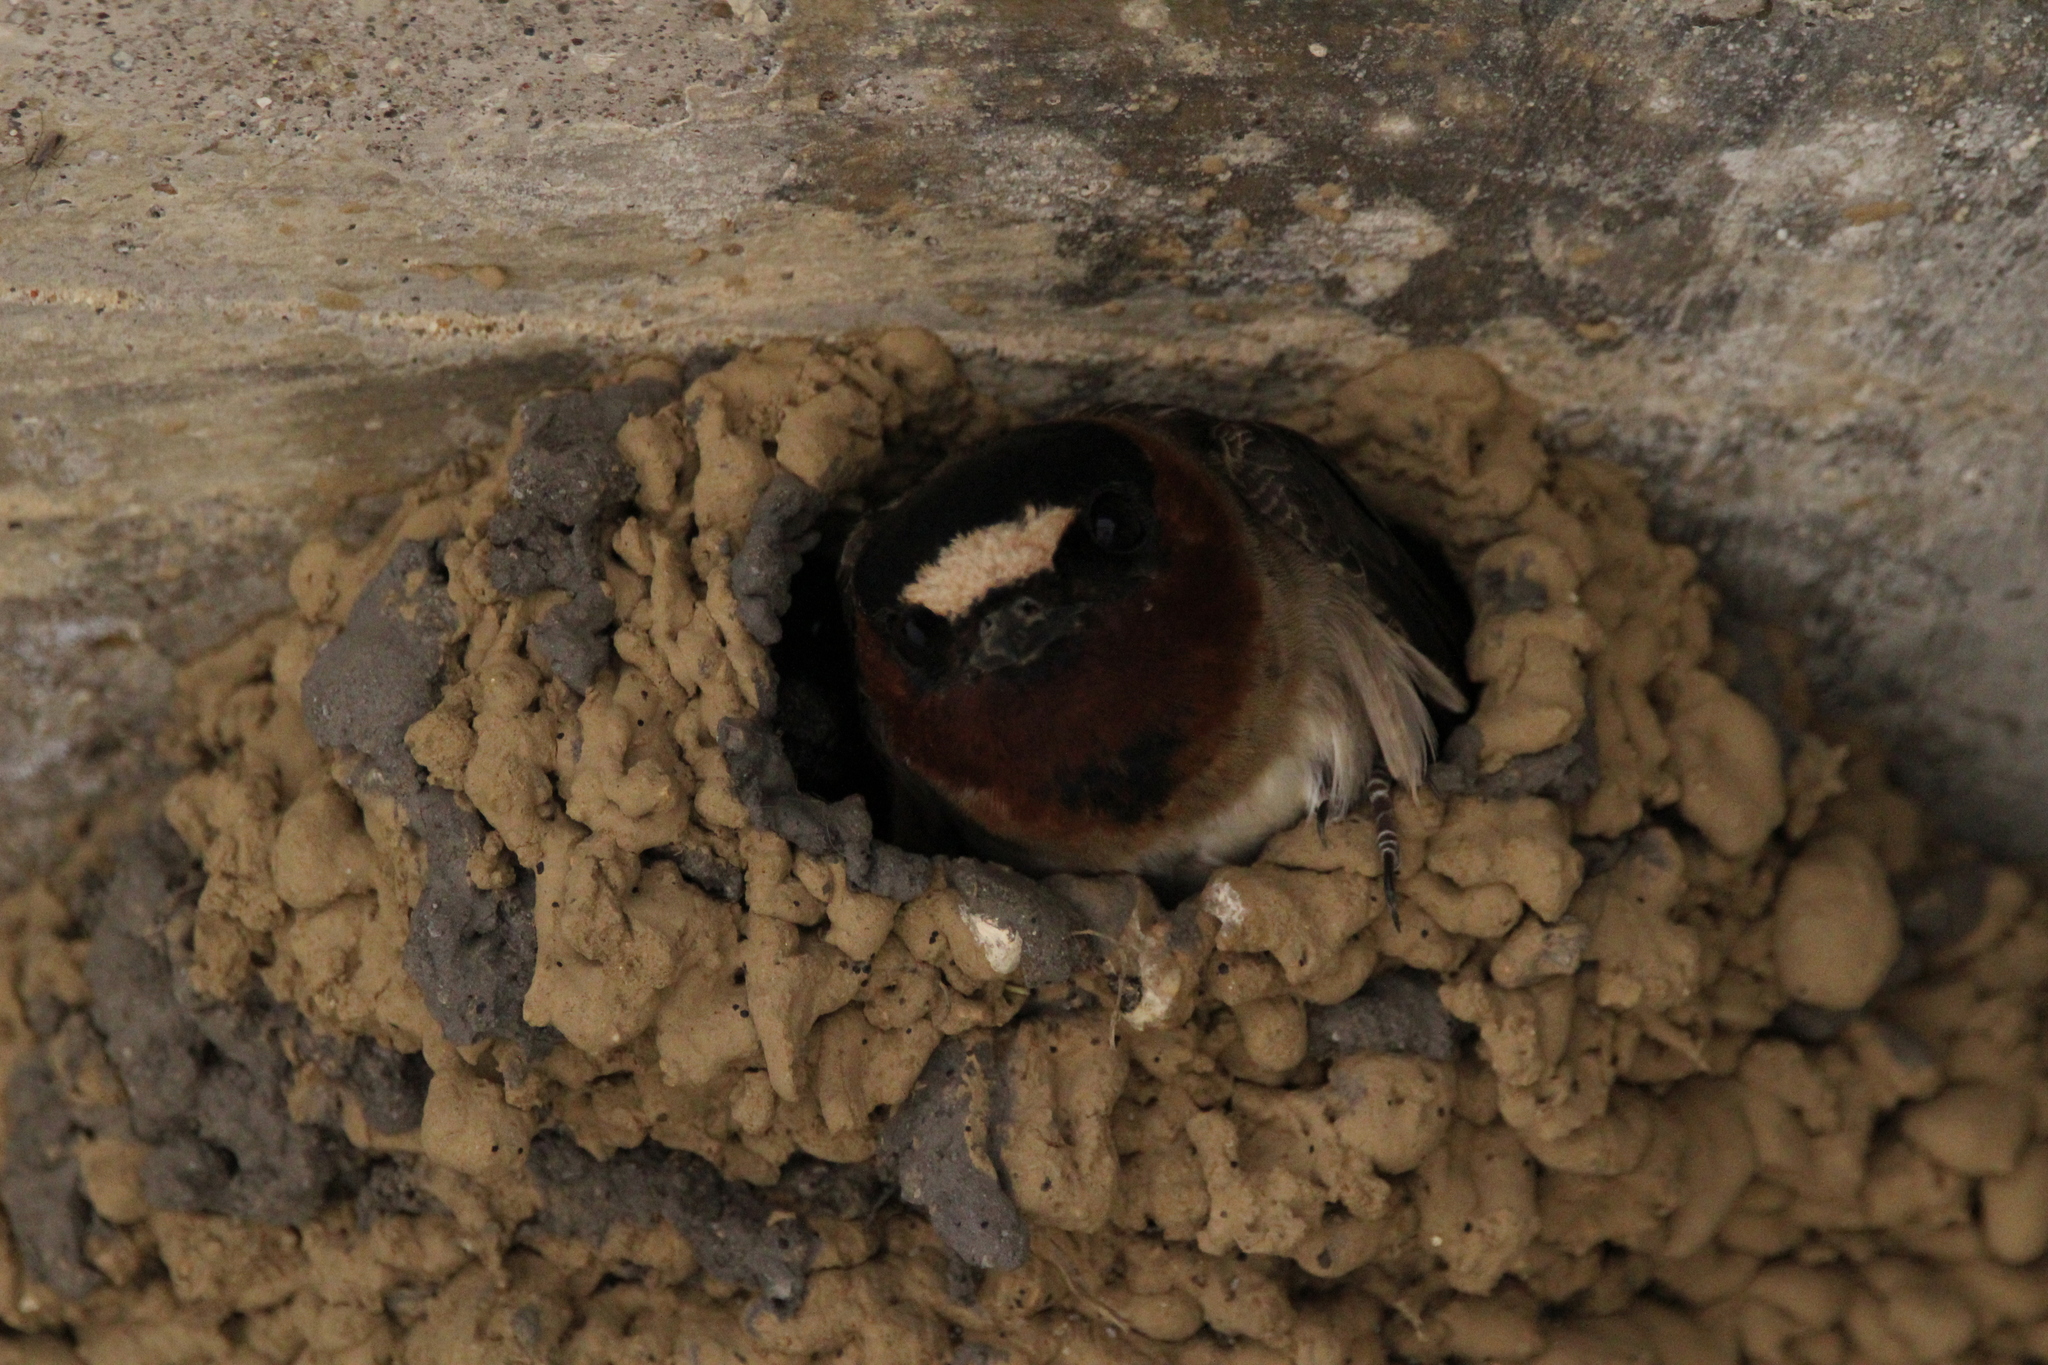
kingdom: Animalia
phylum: Chordata
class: Aves
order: Passeriformes
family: Hirundinidae
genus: Petrochelidon
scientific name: Petrochelidon pyrrhonota
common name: American cliff swallow
